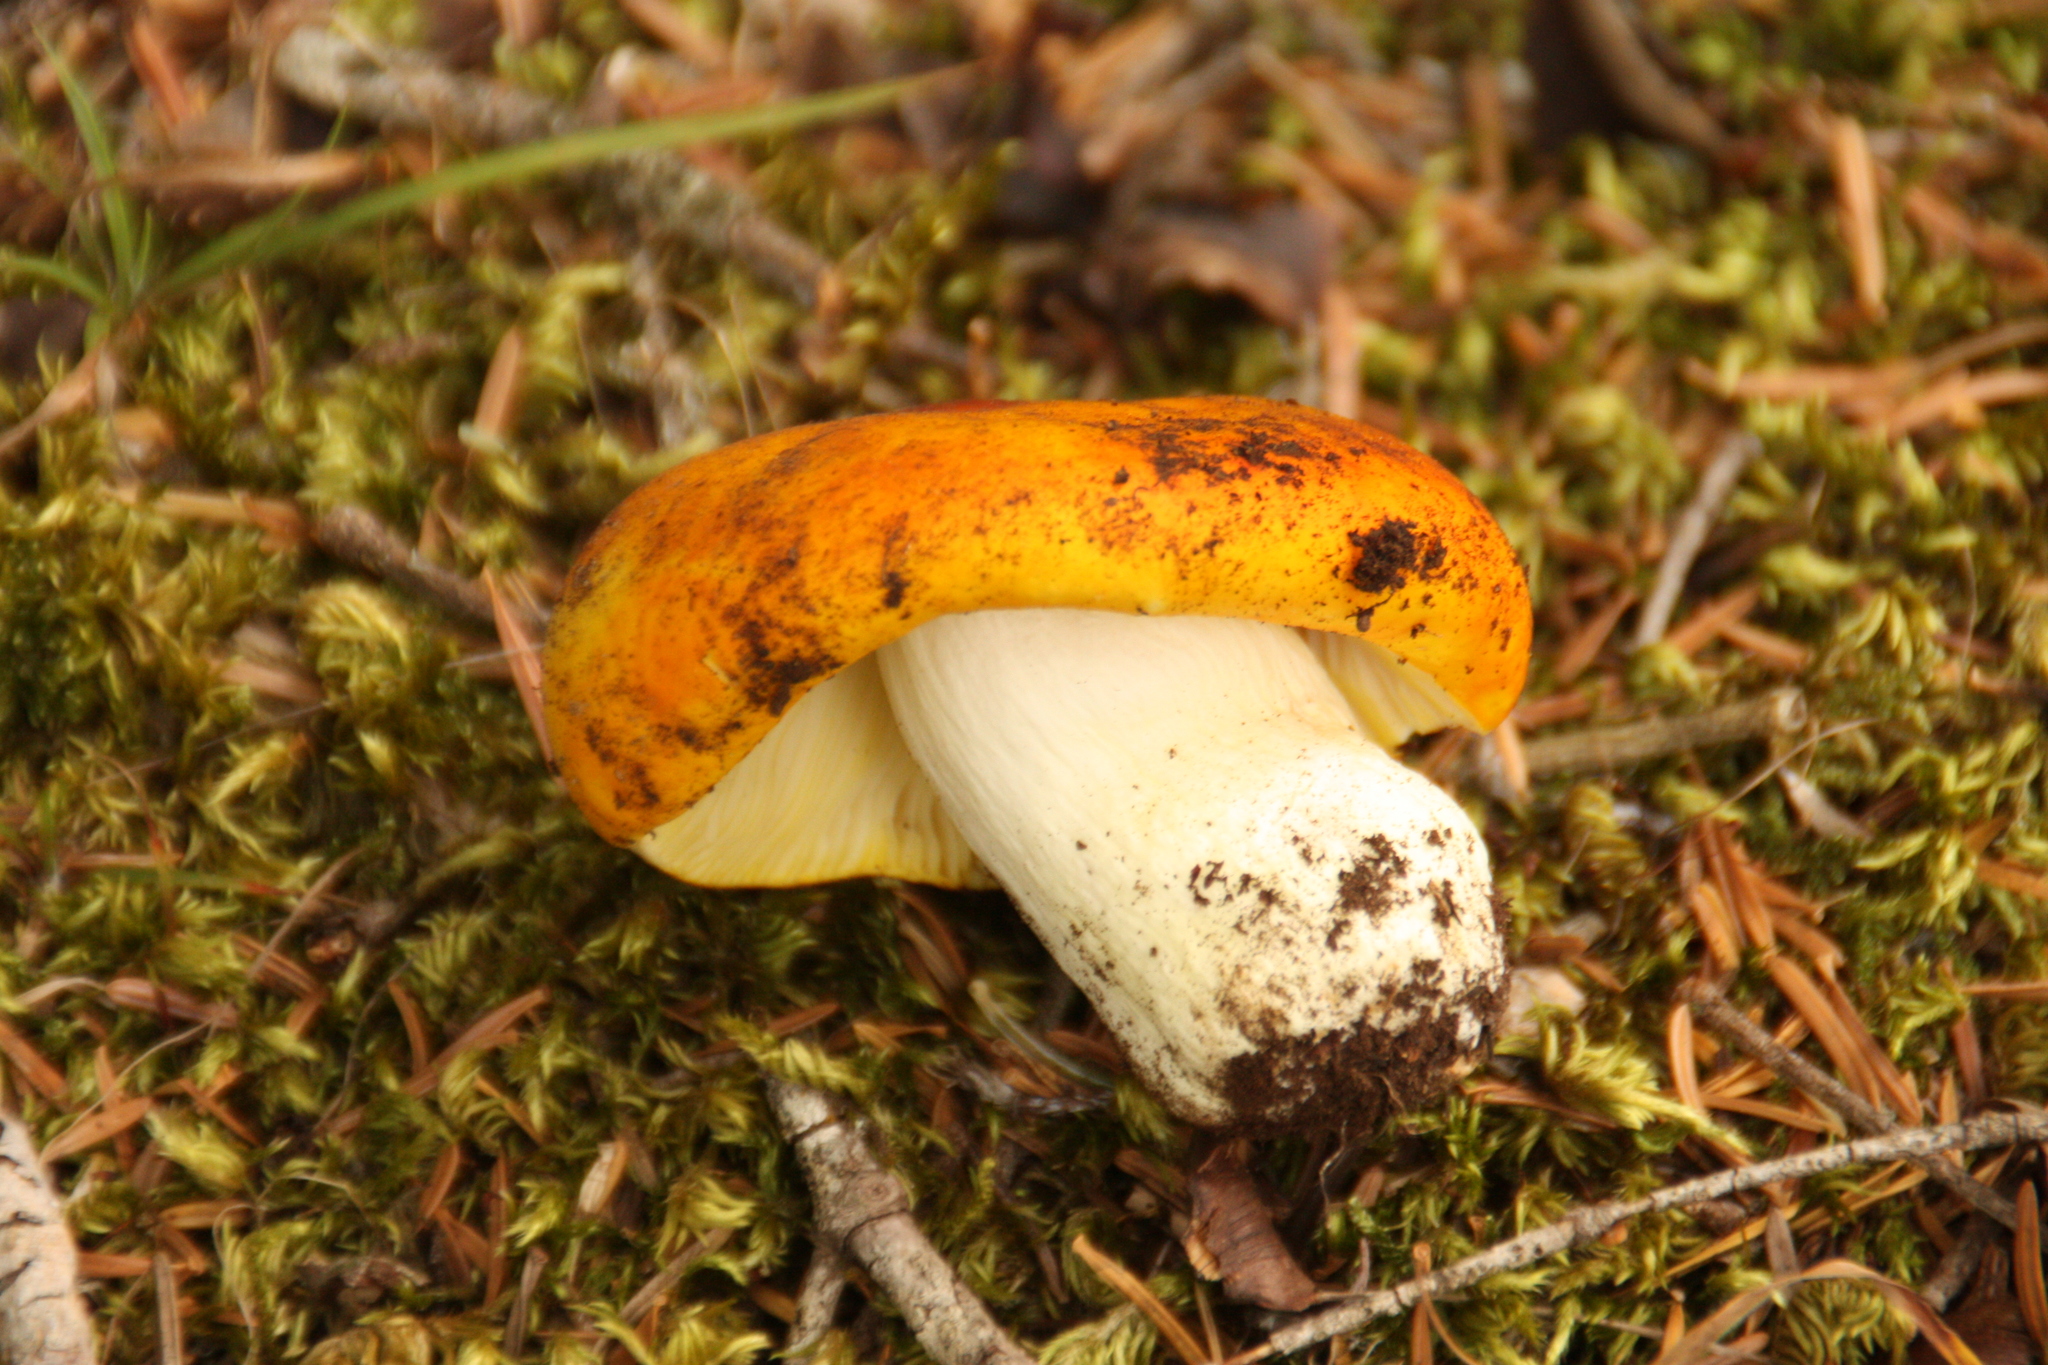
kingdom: Fungi
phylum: Basidiomycota
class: Agaricomycetes
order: Russulales
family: Russulaceae
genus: Russula
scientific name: Russula aurea
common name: Gilded brittlegill
